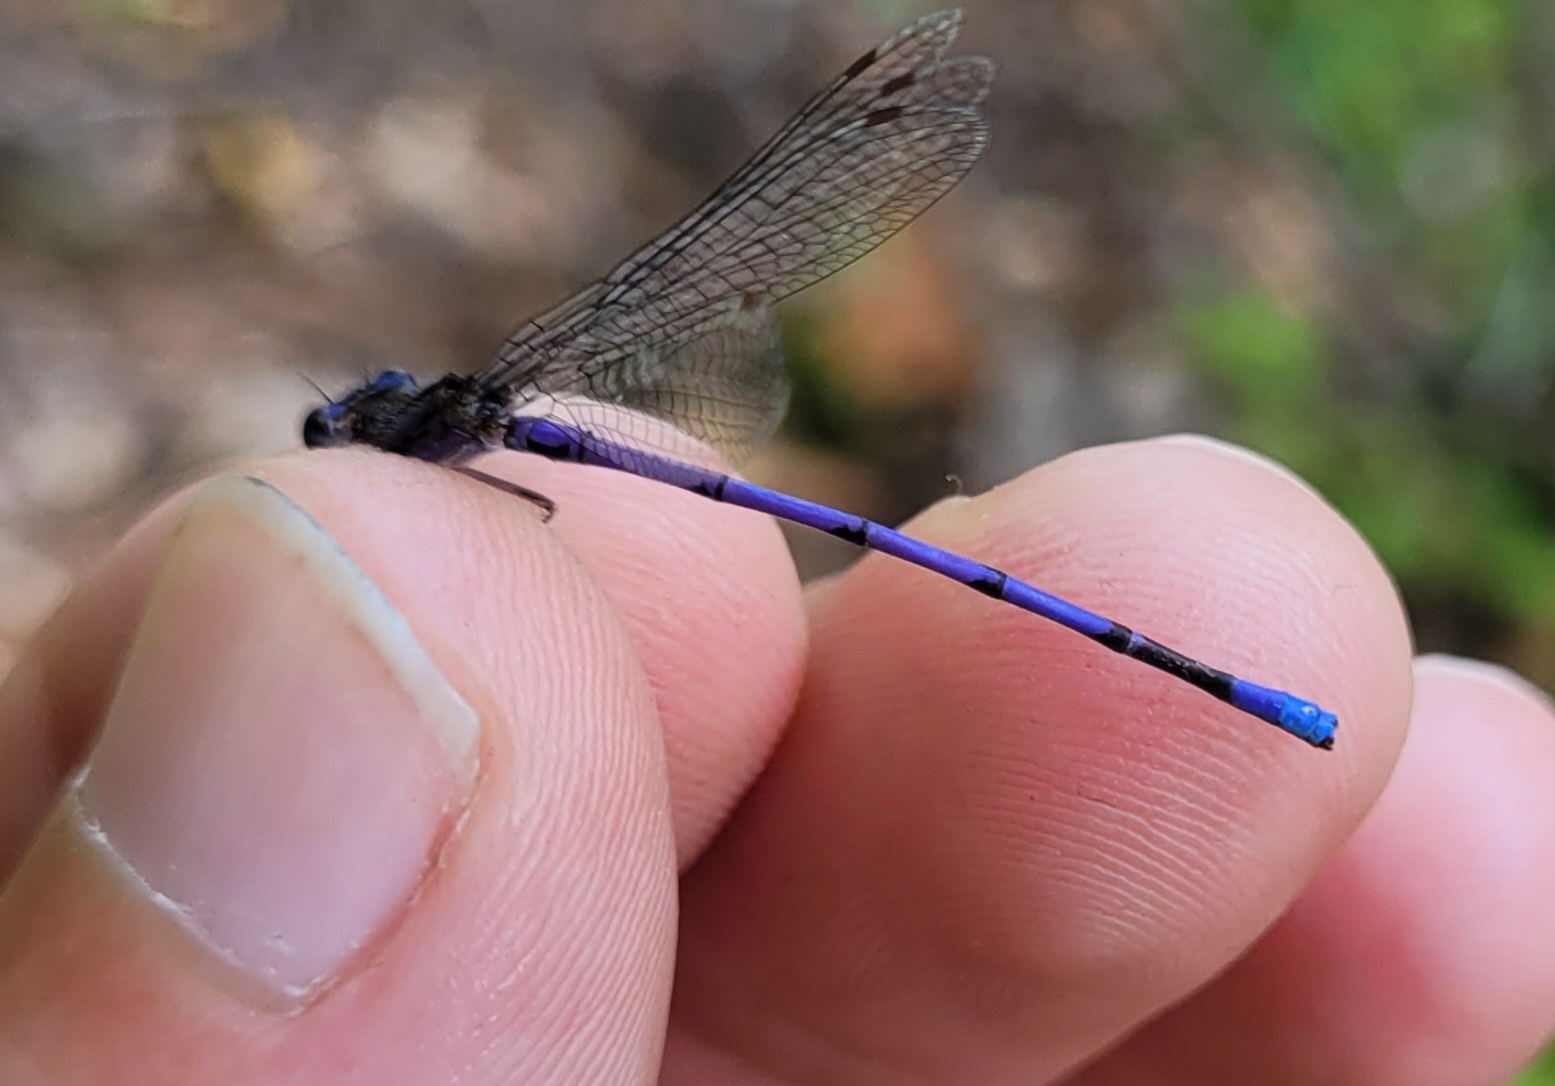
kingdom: Animalia
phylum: Arthropoda
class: Insecta
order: Odonata
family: Coenagrionidae
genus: Argia
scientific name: Argia fumipennis
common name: Variable dancer
